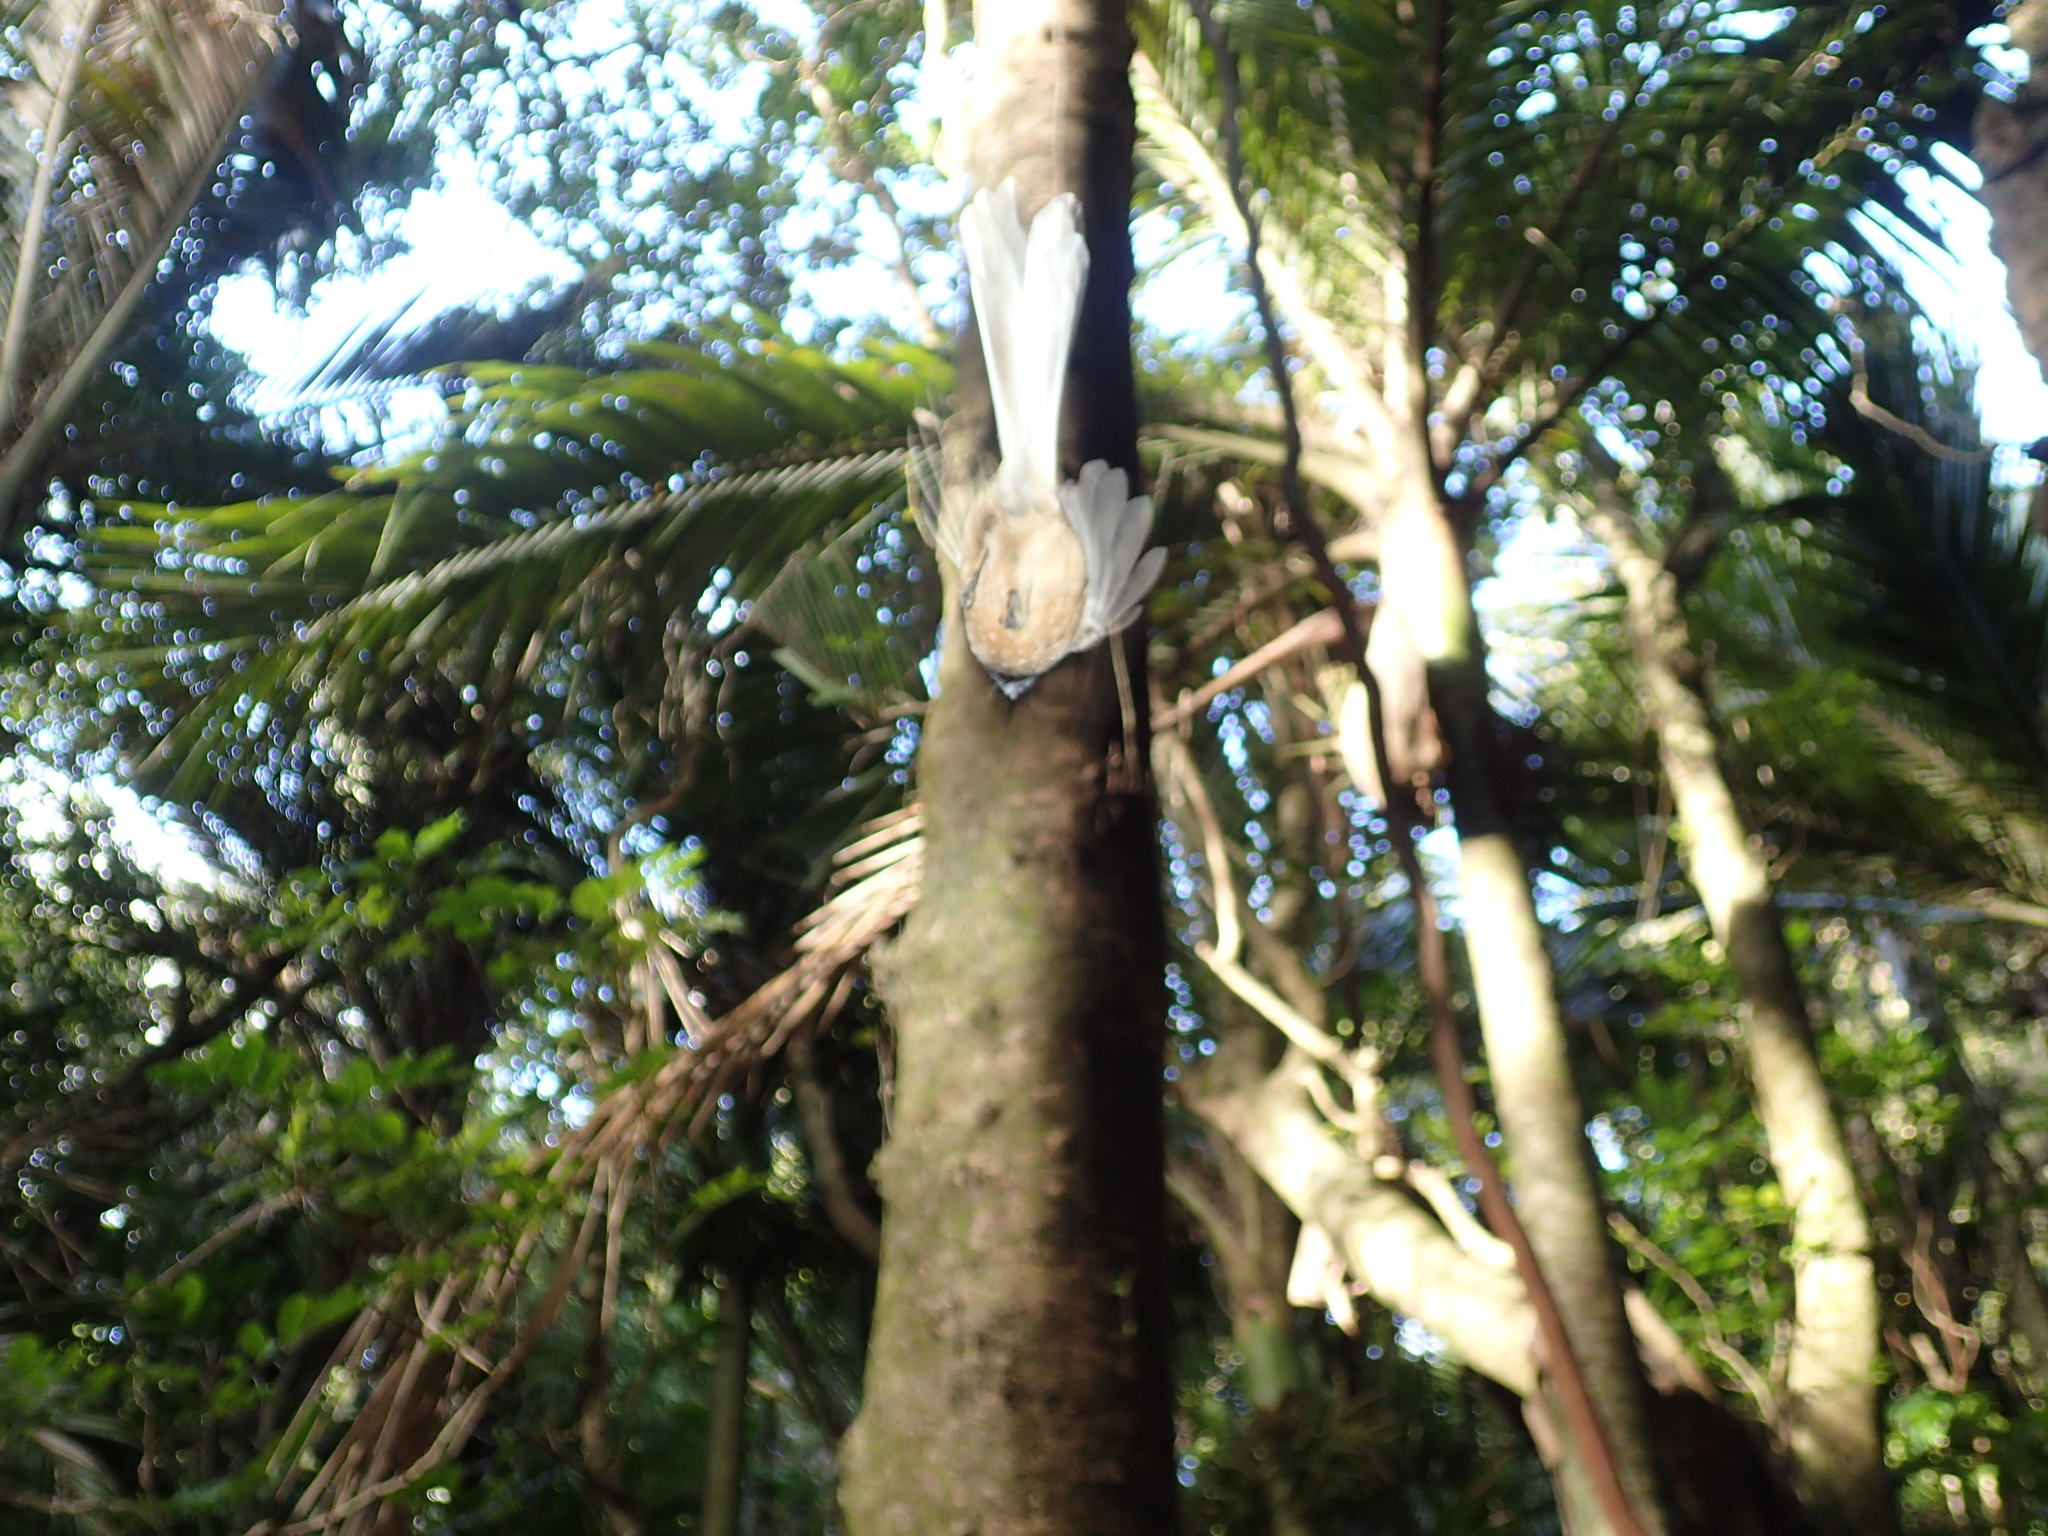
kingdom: Animalia
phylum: Chordata
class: Aves
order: Passeriformes
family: Rhipiduridae
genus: Rhipidura
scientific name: Rhipidura fuliginosa
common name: New zealand fantail
